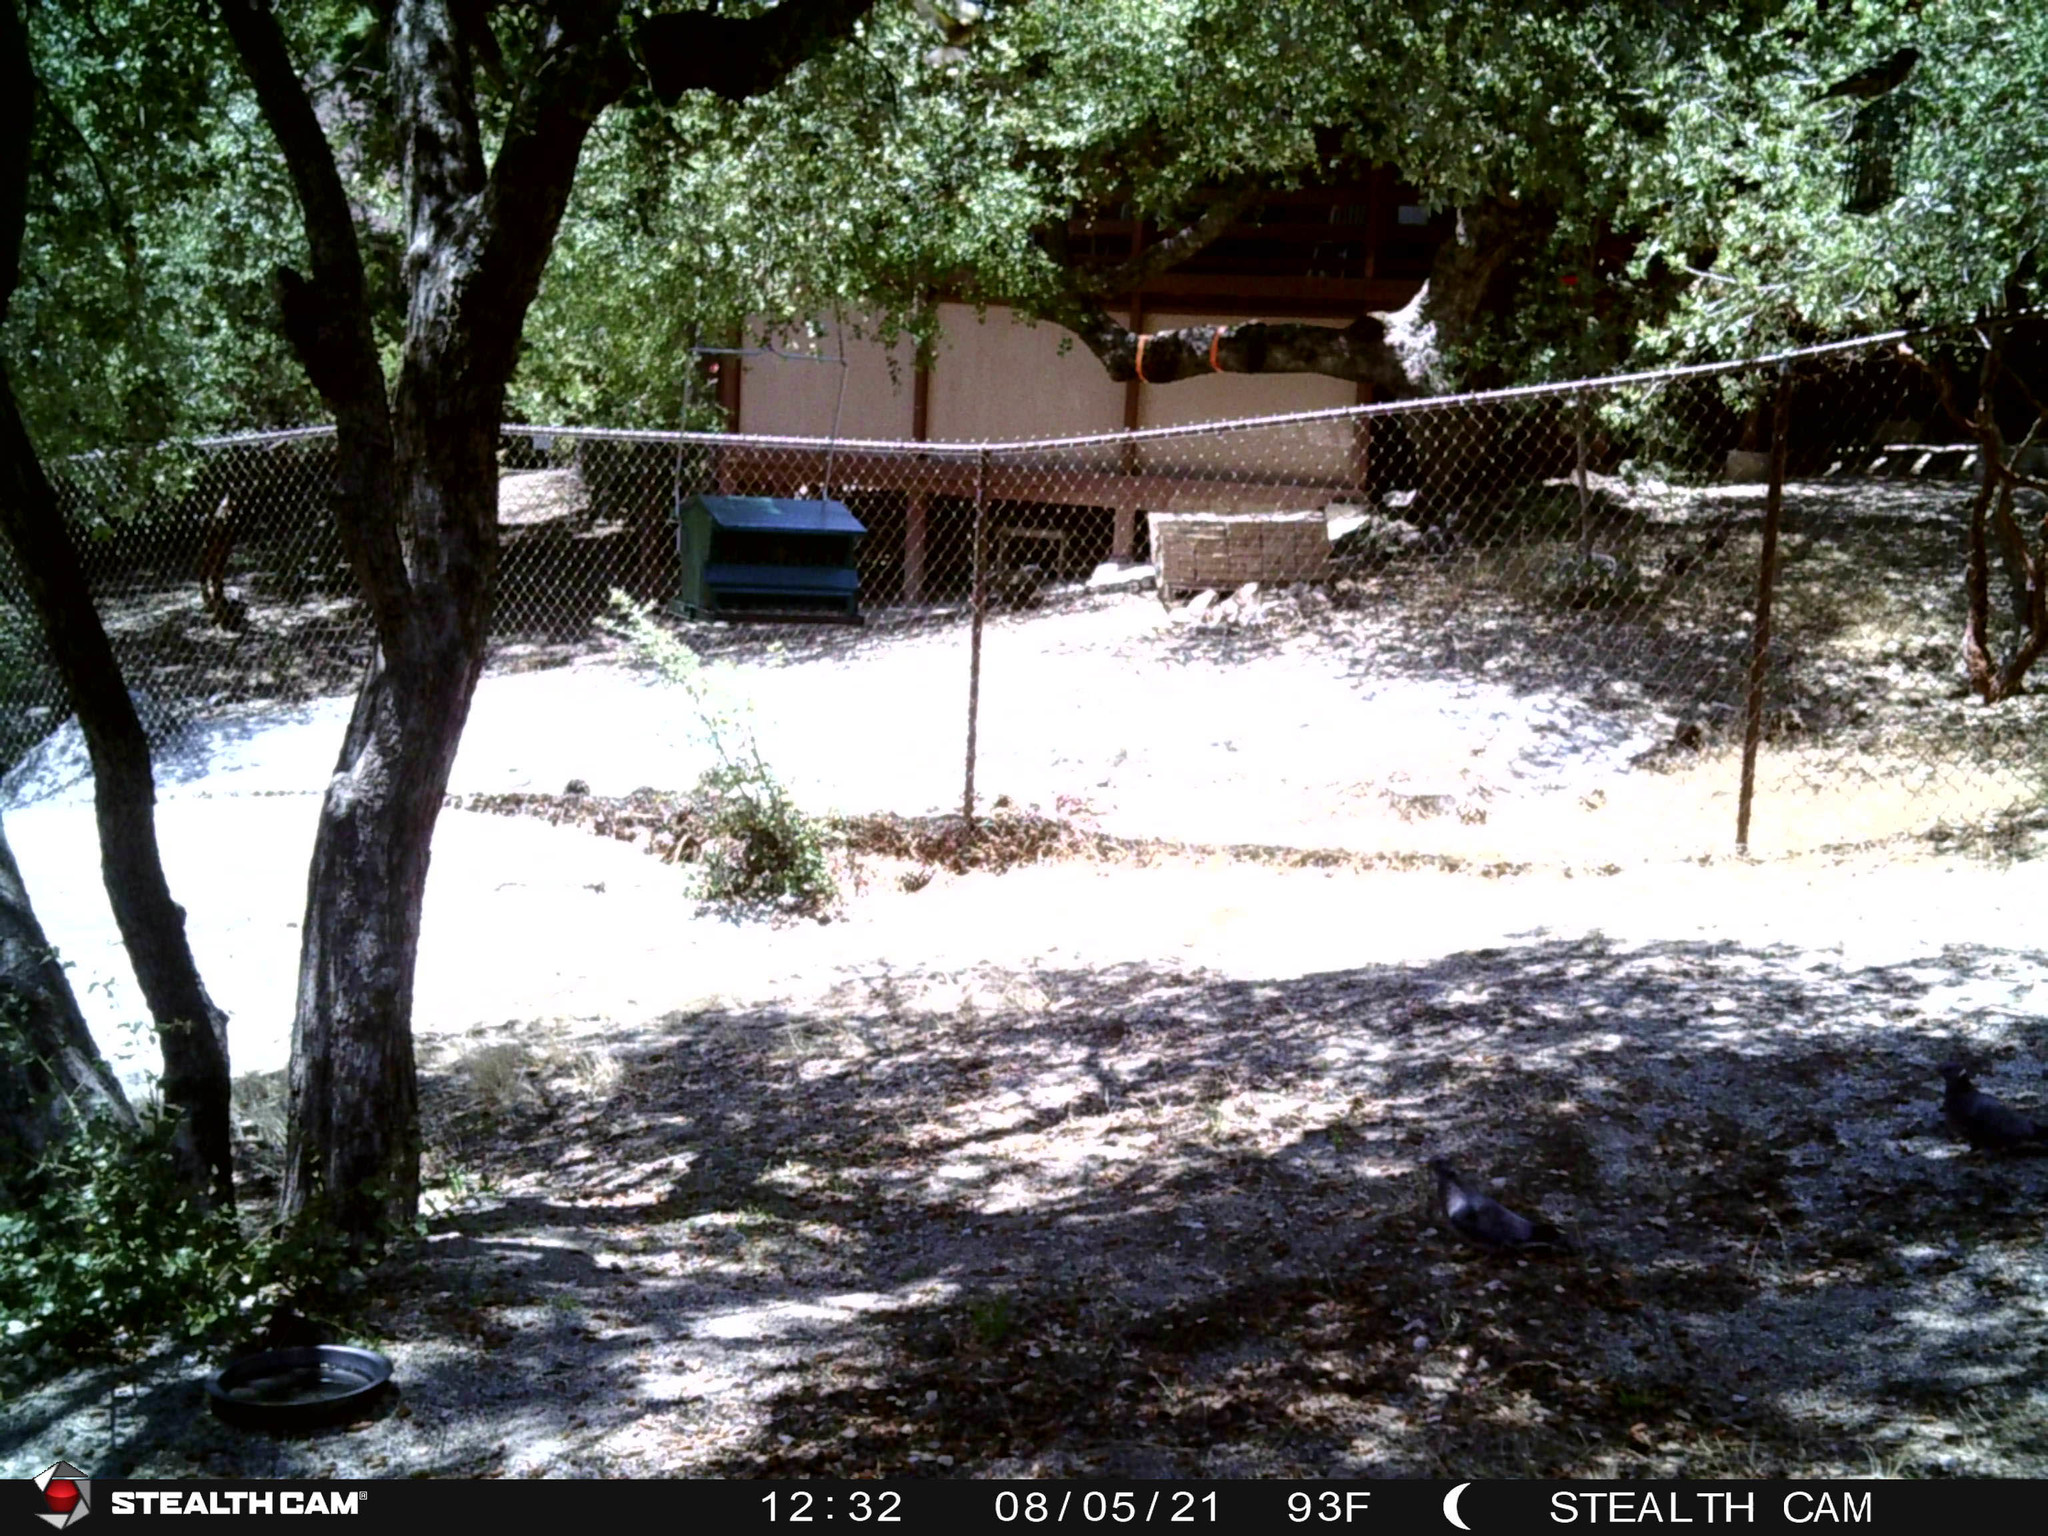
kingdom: Animalia
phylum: Chordata
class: Aves
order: Columbiformes
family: Columbidae
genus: Patagioenas
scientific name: Patagioenas fasciata
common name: Band-tailed pigeon
